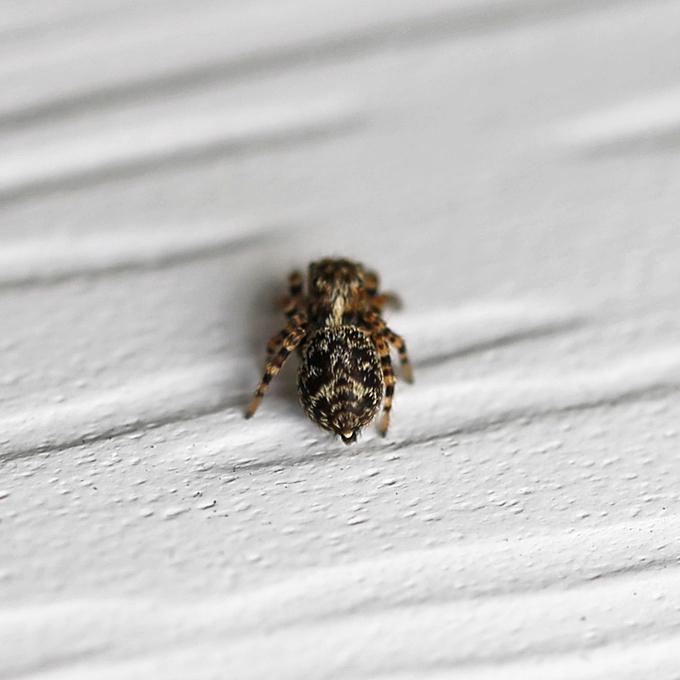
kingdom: Animalia
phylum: Arthropoda
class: Arachnida
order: Araneae
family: Salticidae
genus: Naphrys
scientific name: Naphrys pulex
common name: Flea jumping spider
